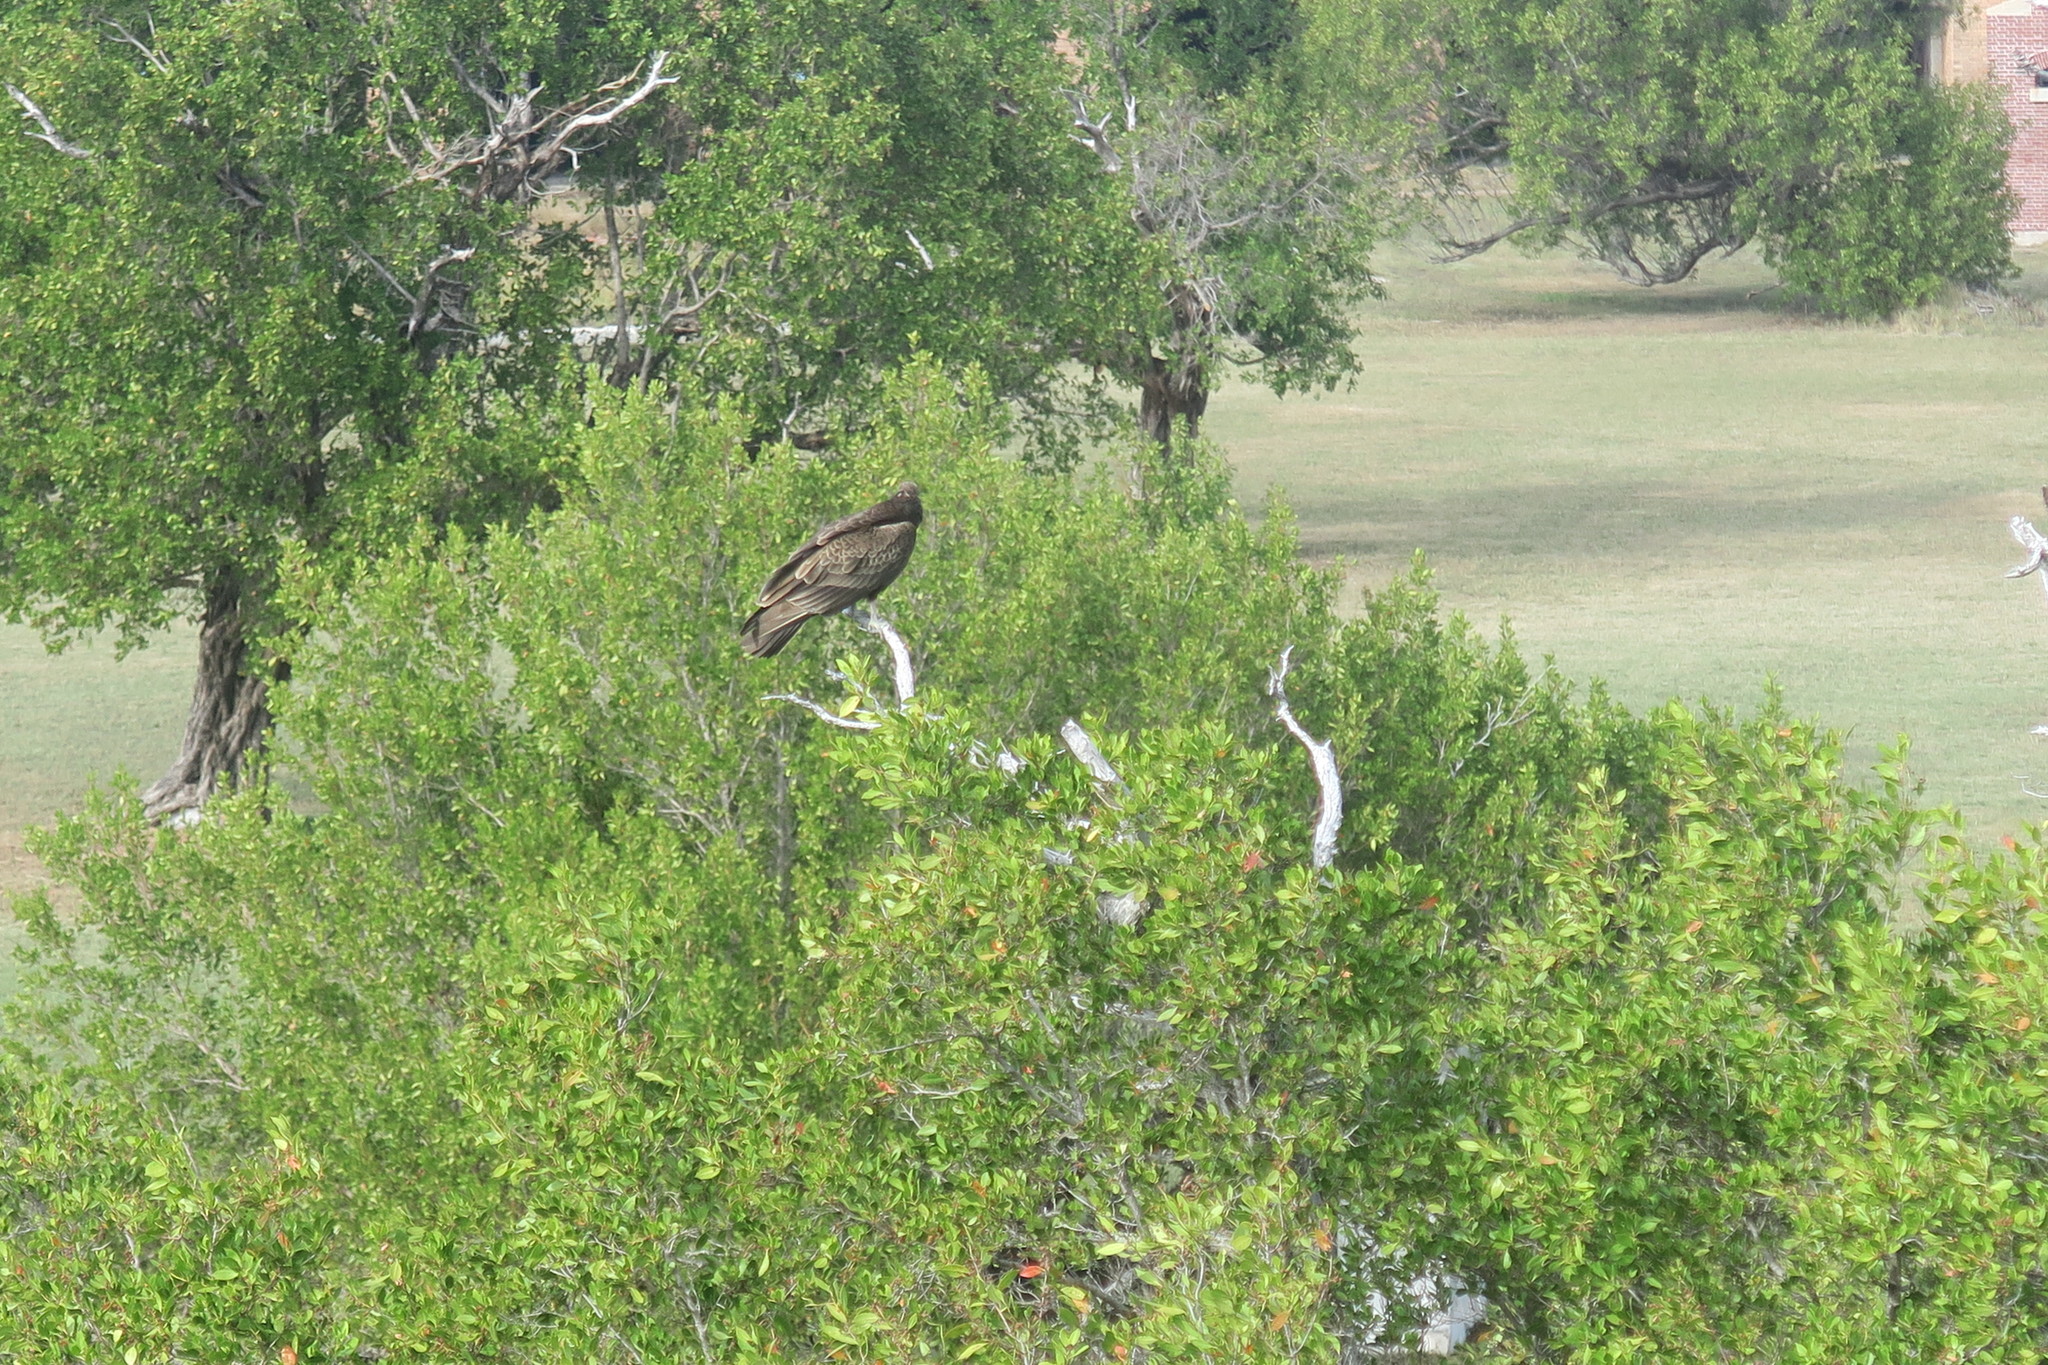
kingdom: Animalia
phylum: Chordata
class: Aves
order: Accipitriformes
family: Cathartidae
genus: Cathartes
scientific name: Cathartes aura
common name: Turkey vulture
